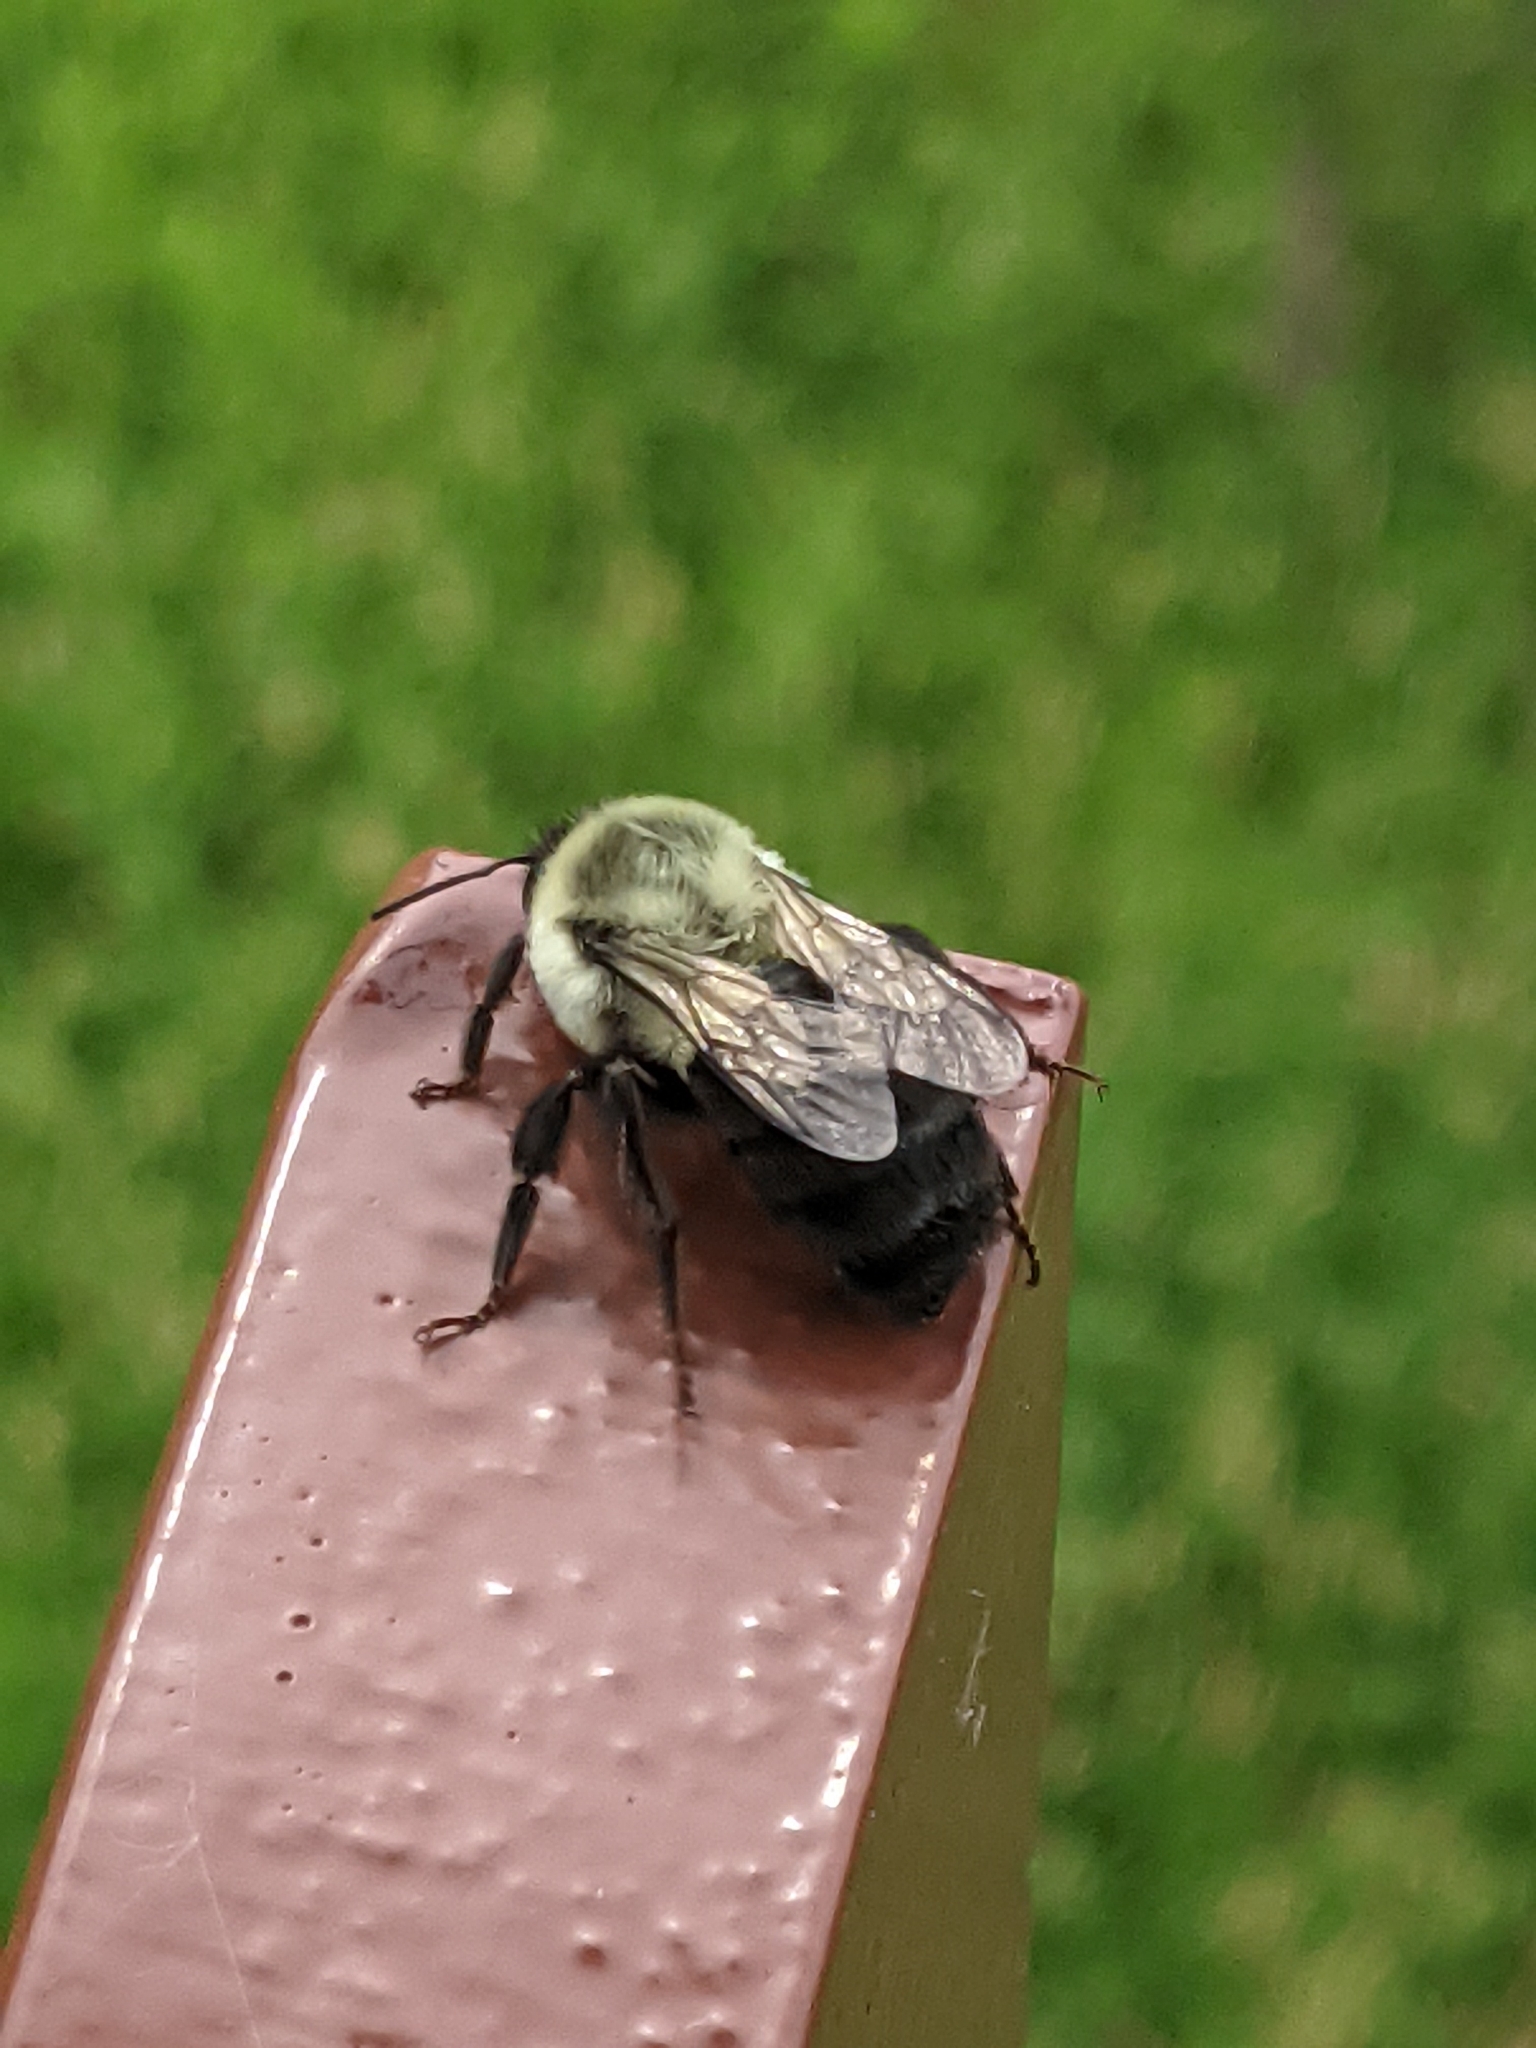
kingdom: Animalia
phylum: Arthropoda
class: Insecta
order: Hymenoptera
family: Apidae
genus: Bombus
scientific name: Bombus impatiens
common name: Common eastern bumble bee
